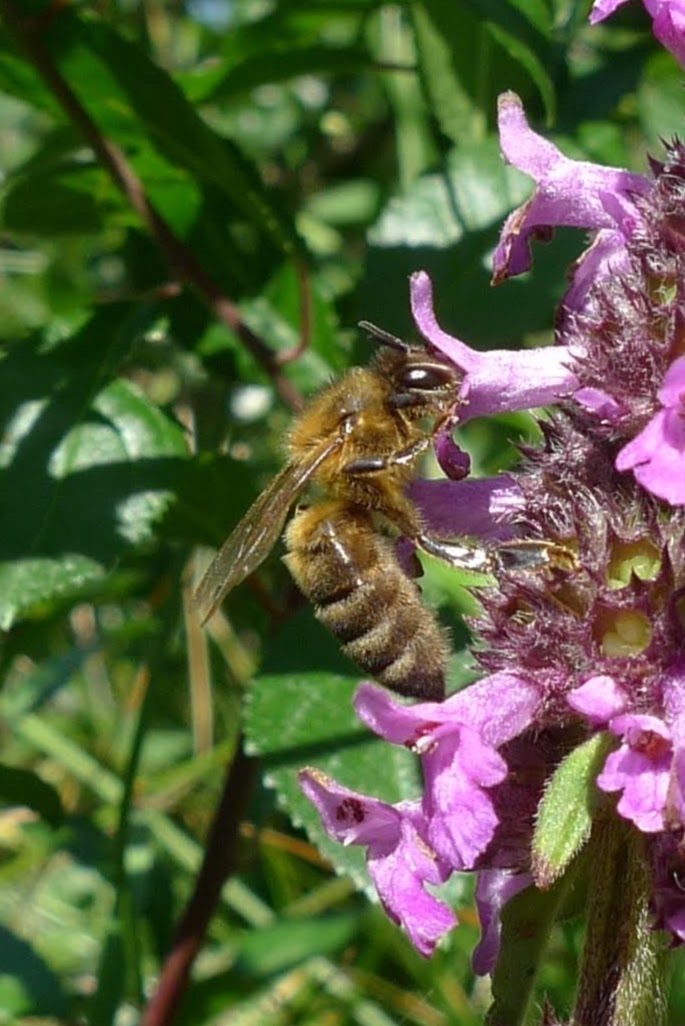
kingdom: Animalia
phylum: Arthropoda
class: Insecta
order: Hymenoptera
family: Apidae
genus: Apis
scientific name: Apis mellifera
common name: Honey bee
